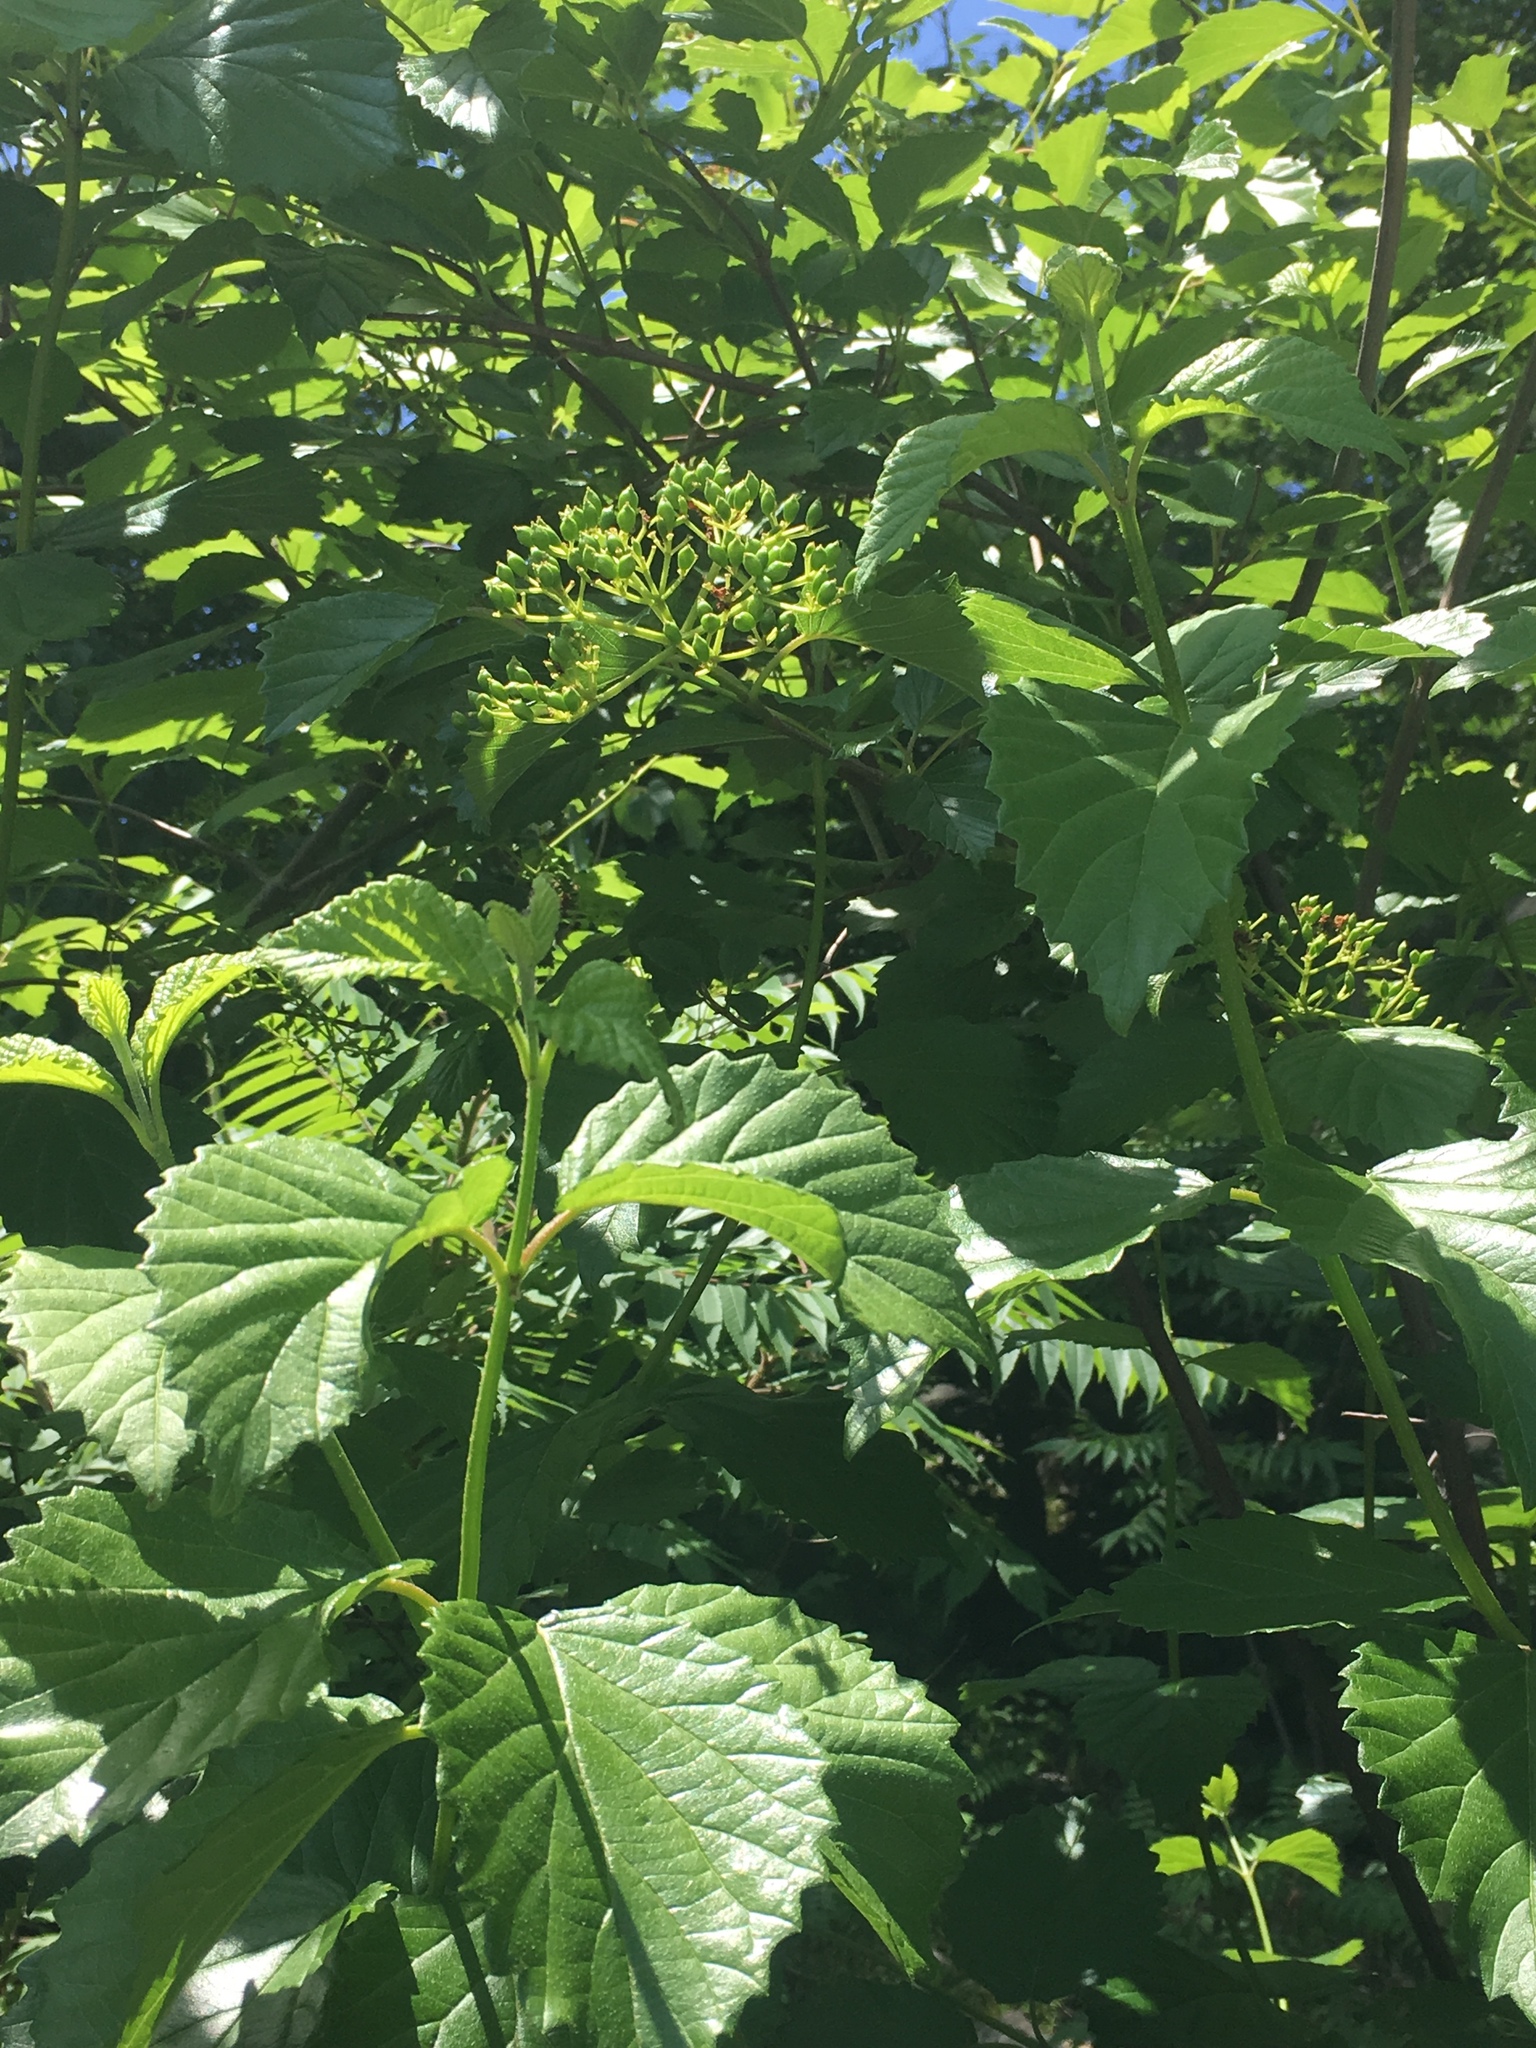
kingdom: Plantae
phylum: Tracheophyta
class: Magnoliopsida
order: Dipsacales
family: Viburnaceae
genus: Viburnum
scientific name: Viburnum dentatum
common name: Arrow-wood
